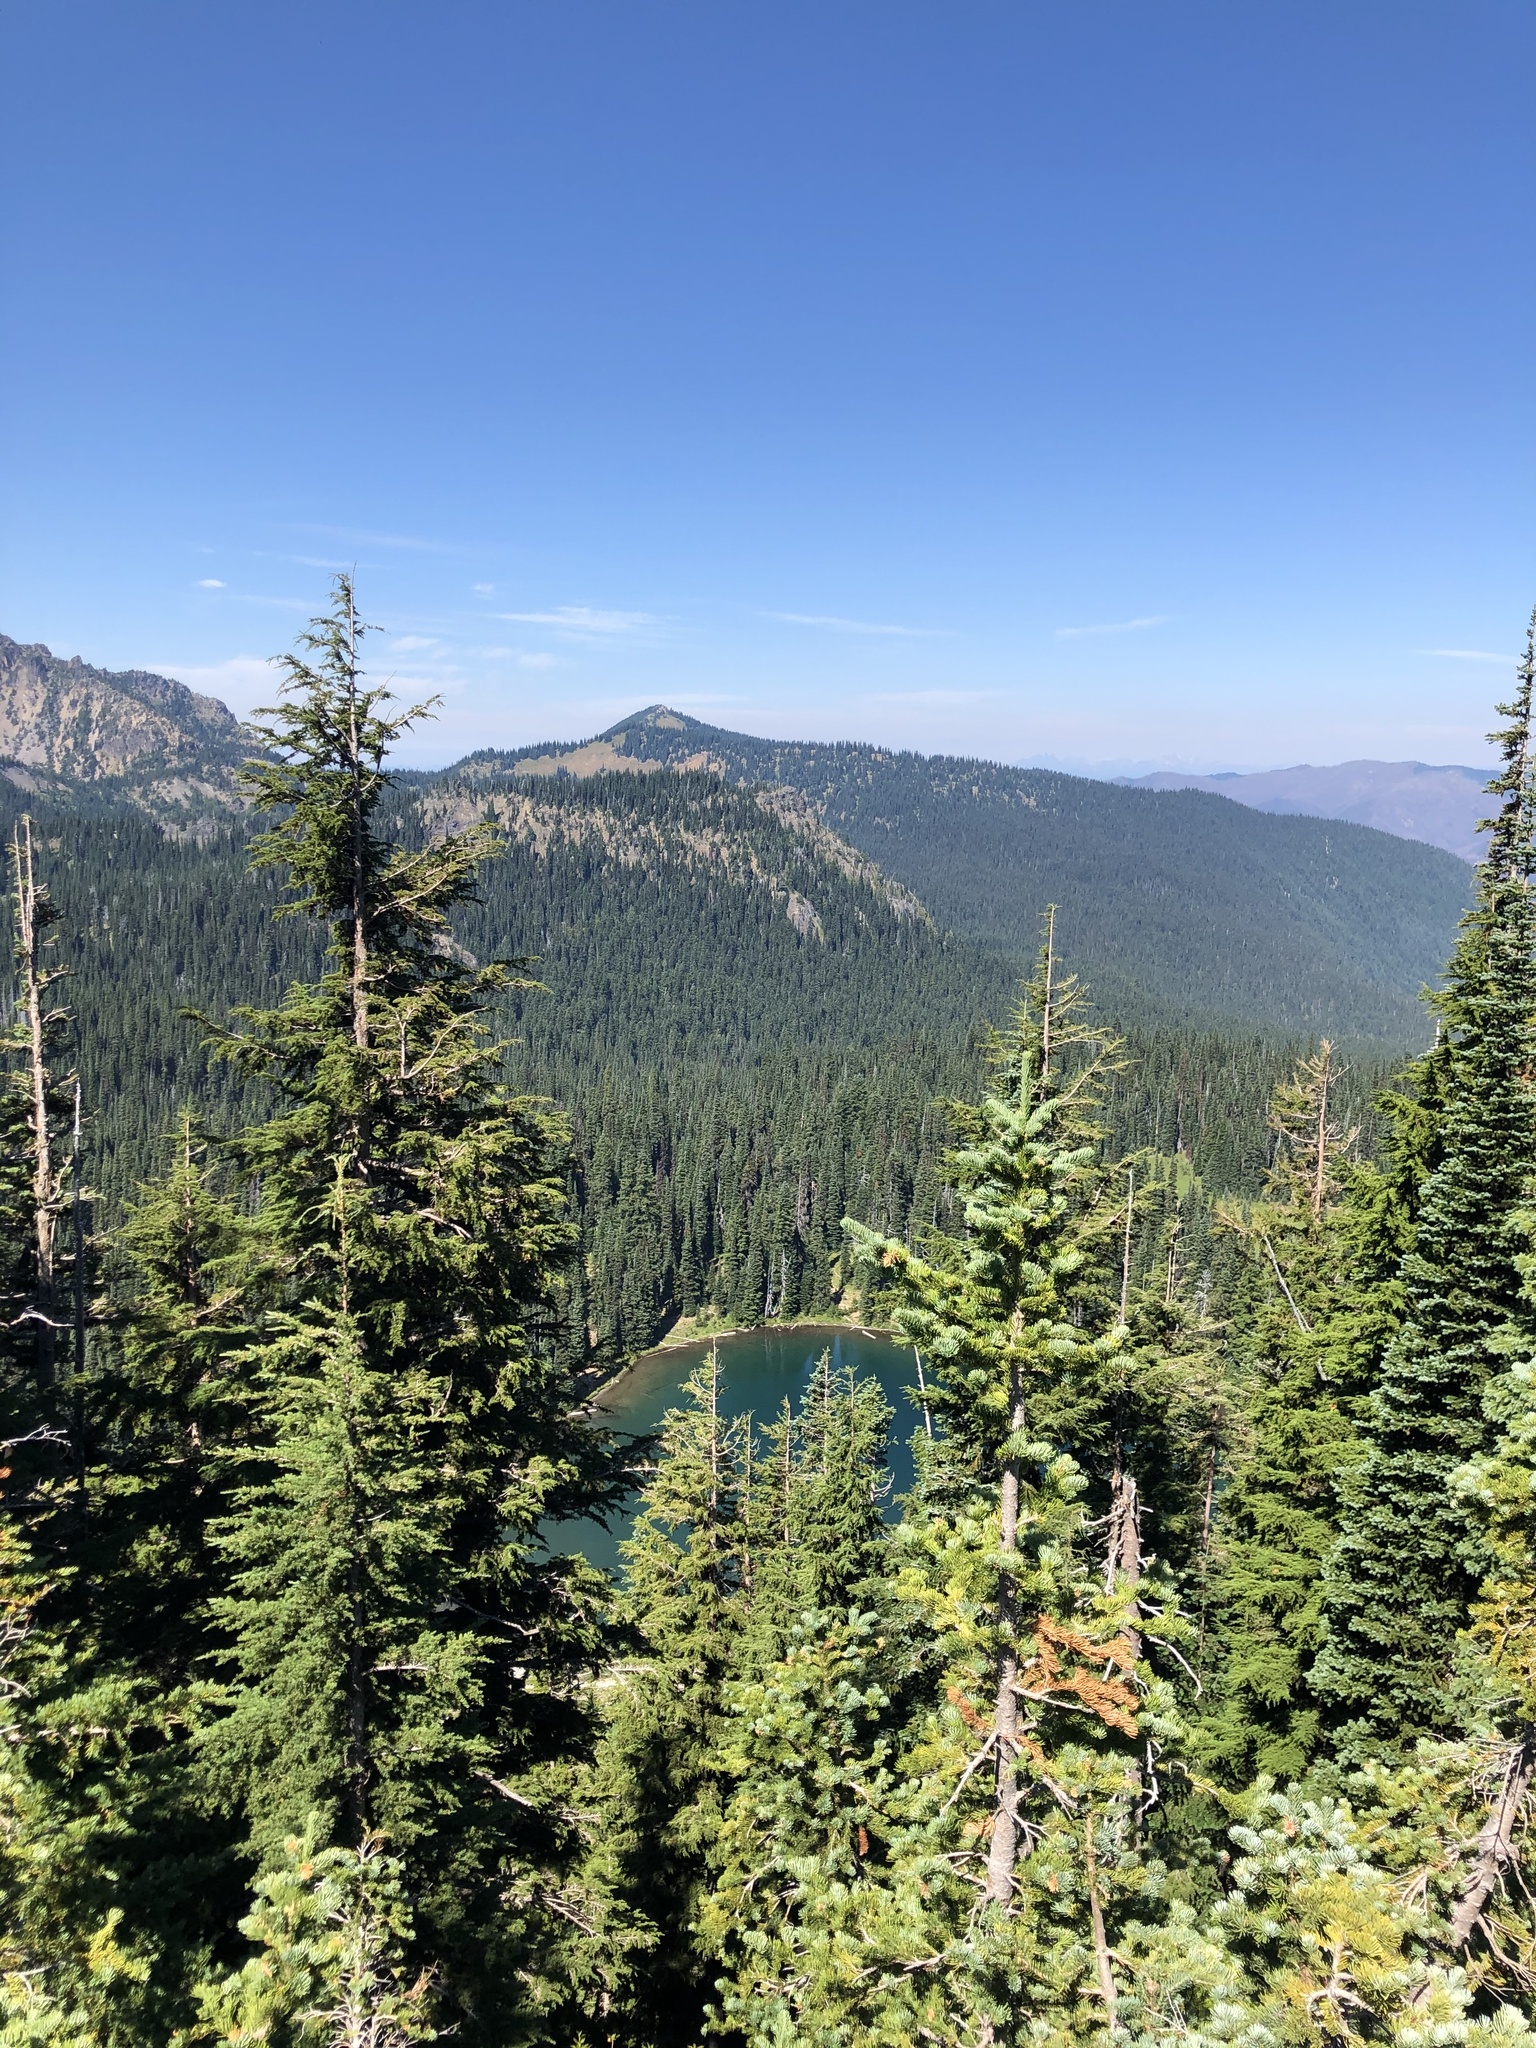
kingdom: Plantae
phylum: Tracheophyta
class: Pinopsida
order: Pinales
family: Pinaceae
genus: Tsuga
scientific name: Tsuga heterophylla
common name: Western hemlock
